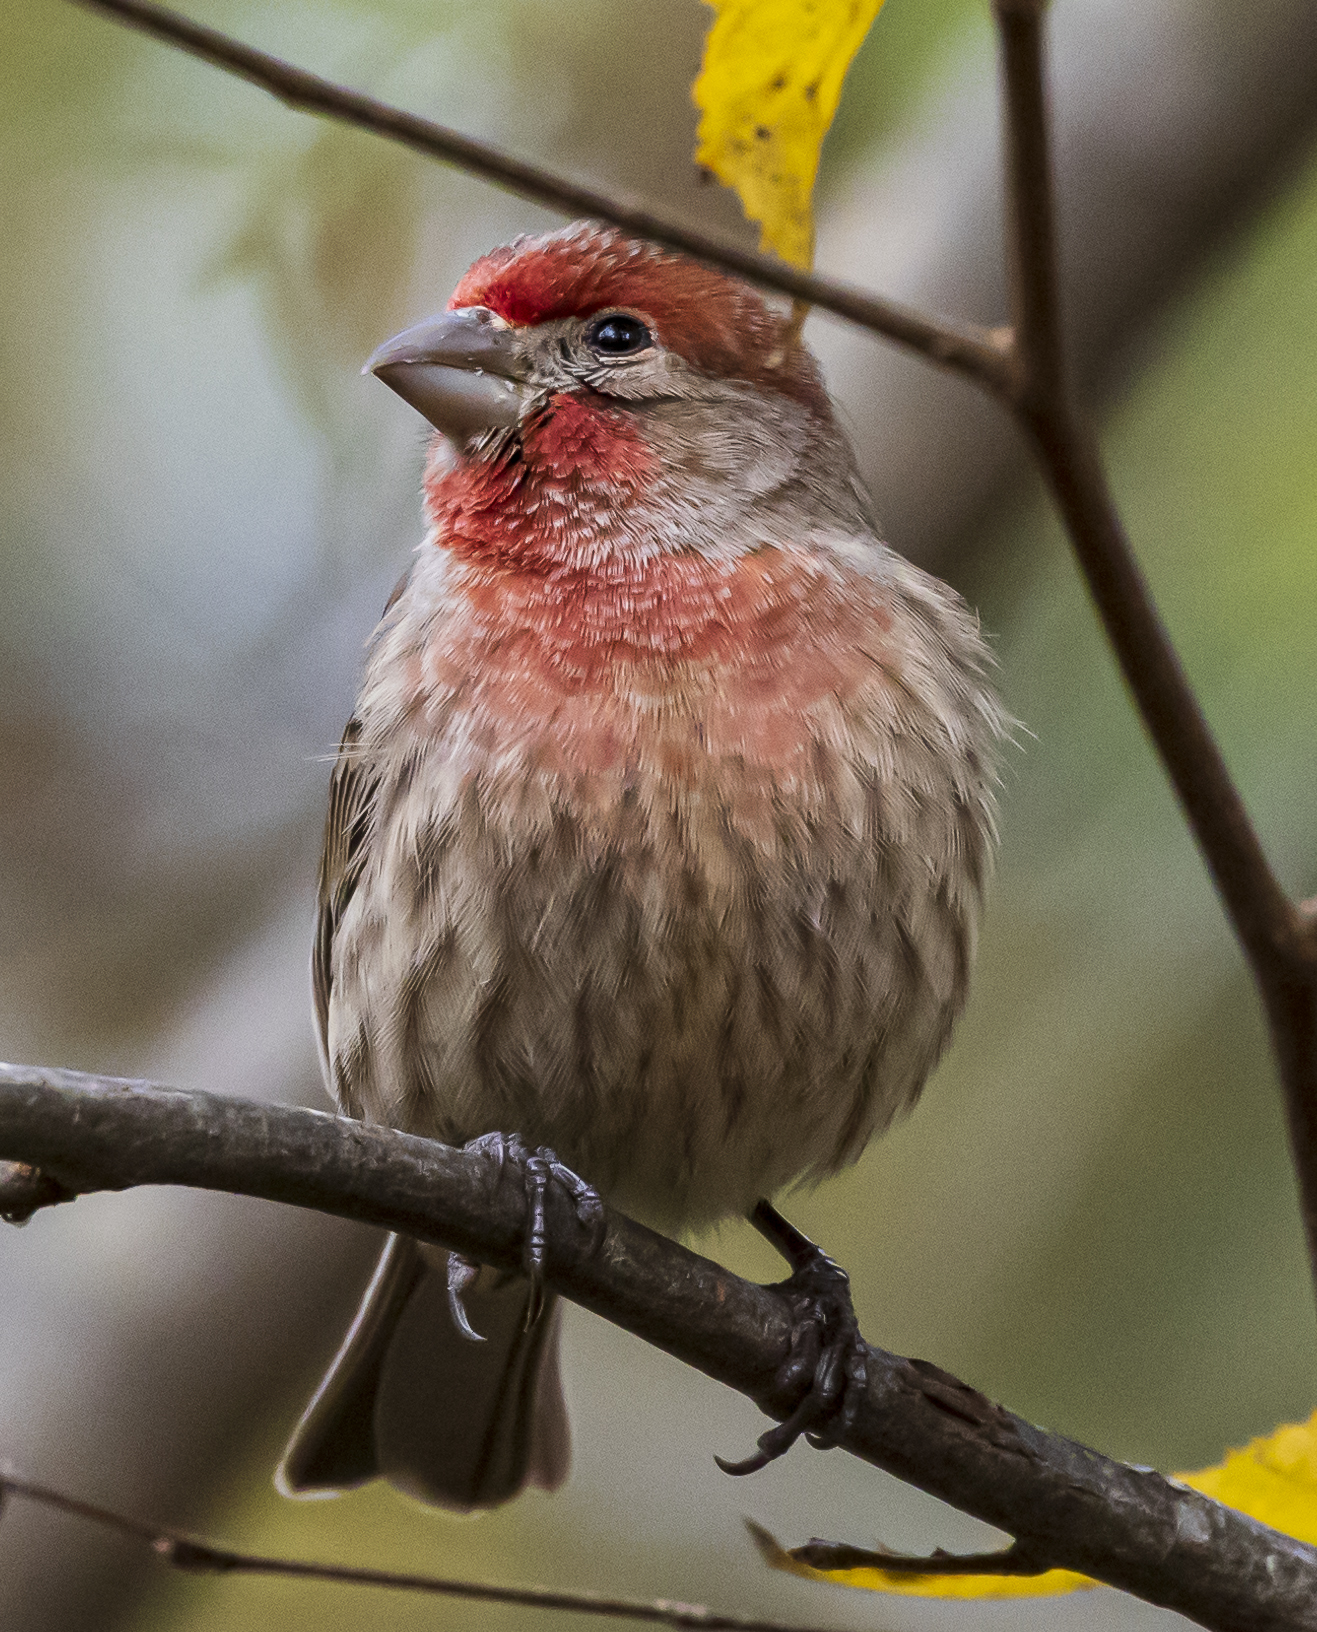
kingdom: Animalia
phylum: Chordata
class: Aves
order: Passeriformes
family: Fringillidae
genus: Haemorhous
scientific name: Haemorhous mexicanus
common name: House finch
